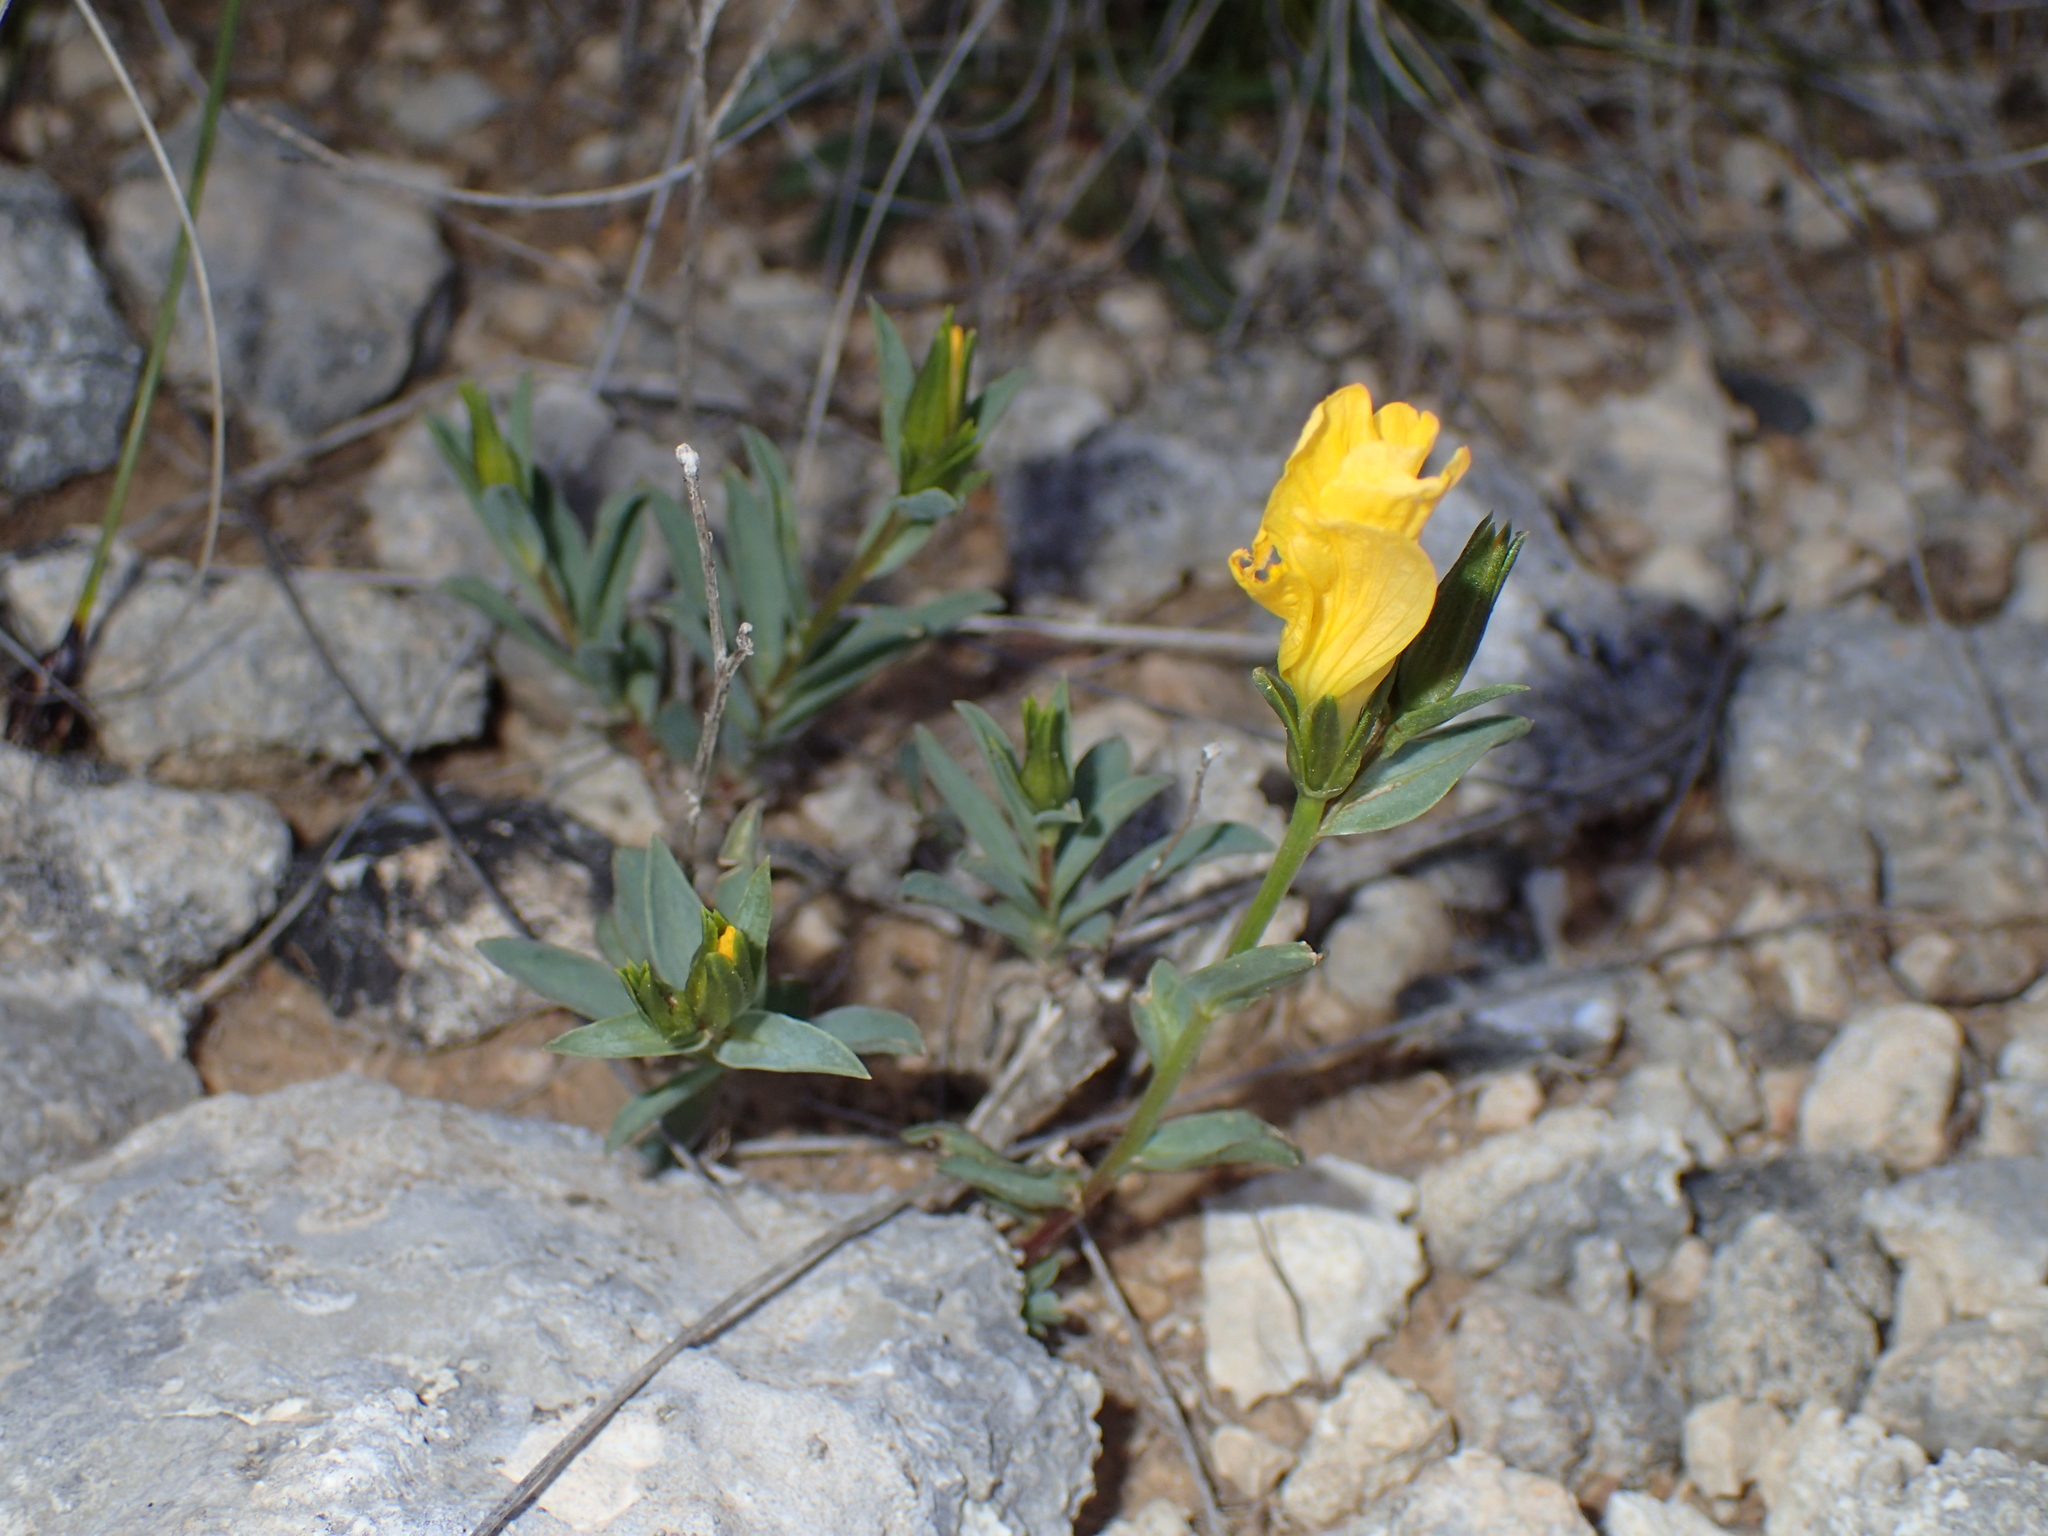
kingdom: Plantae
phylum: Tracheophyta
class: Magnoliopsida
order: Malpighiales
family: Linaceae
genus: Linum
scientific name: Linum campanulatum
